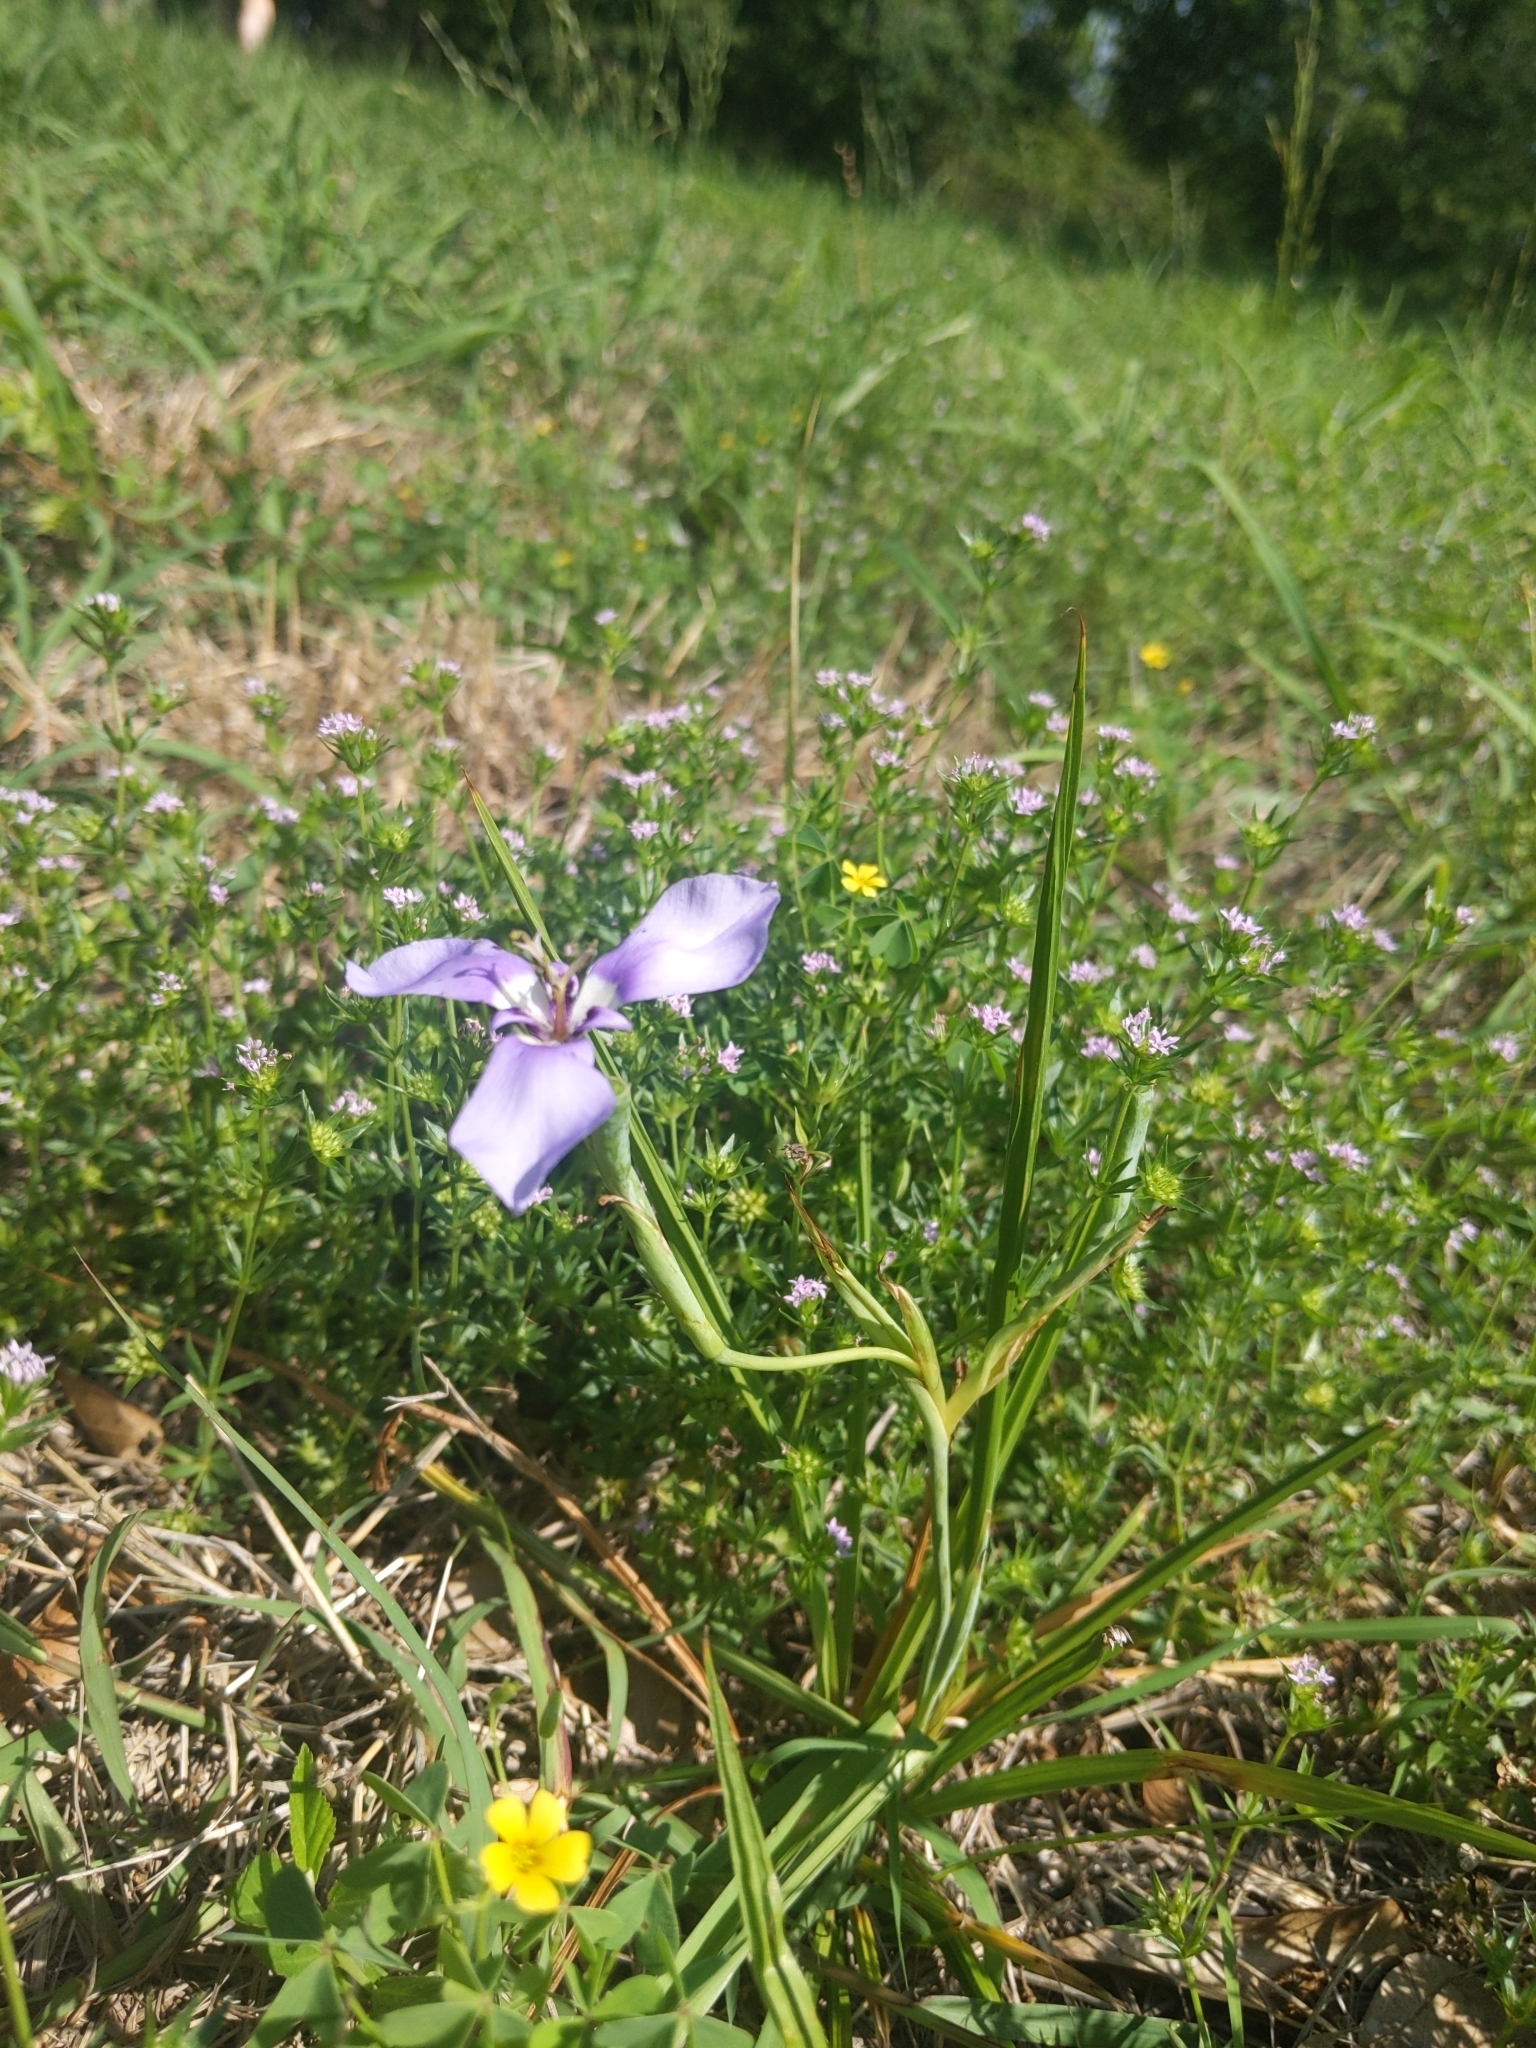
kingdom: Plantae
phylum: Tracheophyta
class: Liliopsida
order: Asparagales
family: Iridaceae
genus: Herbertia
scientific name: Herbertia lahue
